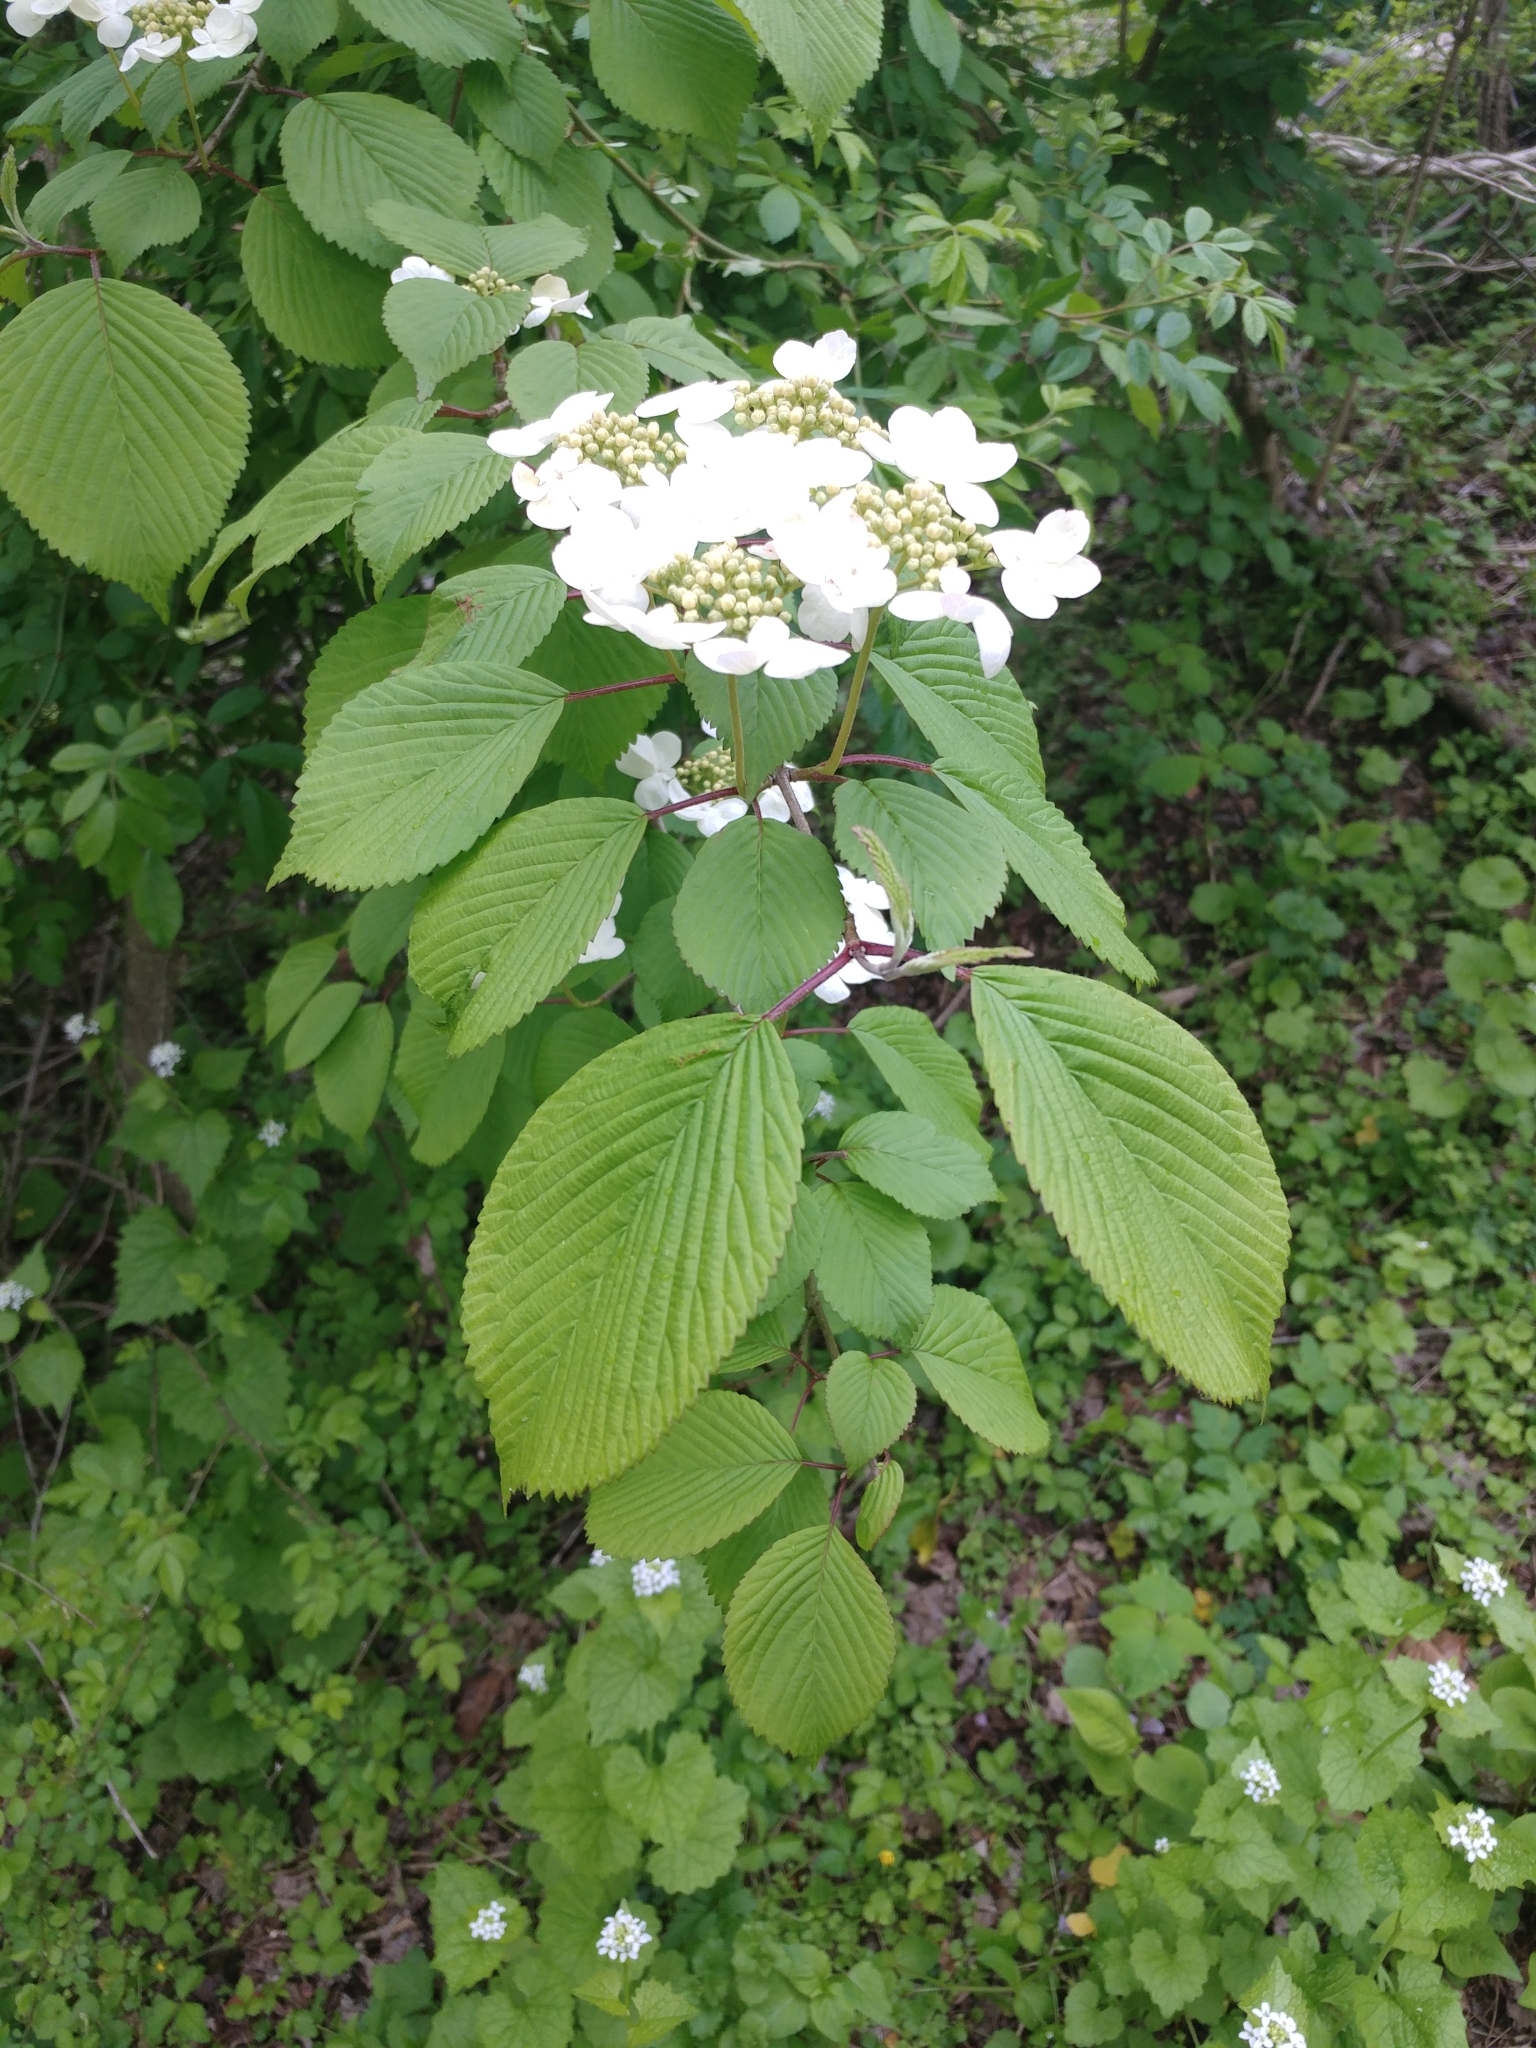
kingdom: Plantae
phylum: Tracheophyta
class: Magnoliopsida
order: Dipsacales
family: Viburnaceae
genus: Viburnum
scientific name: Viburnum plicatum
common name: Japanese snowball
